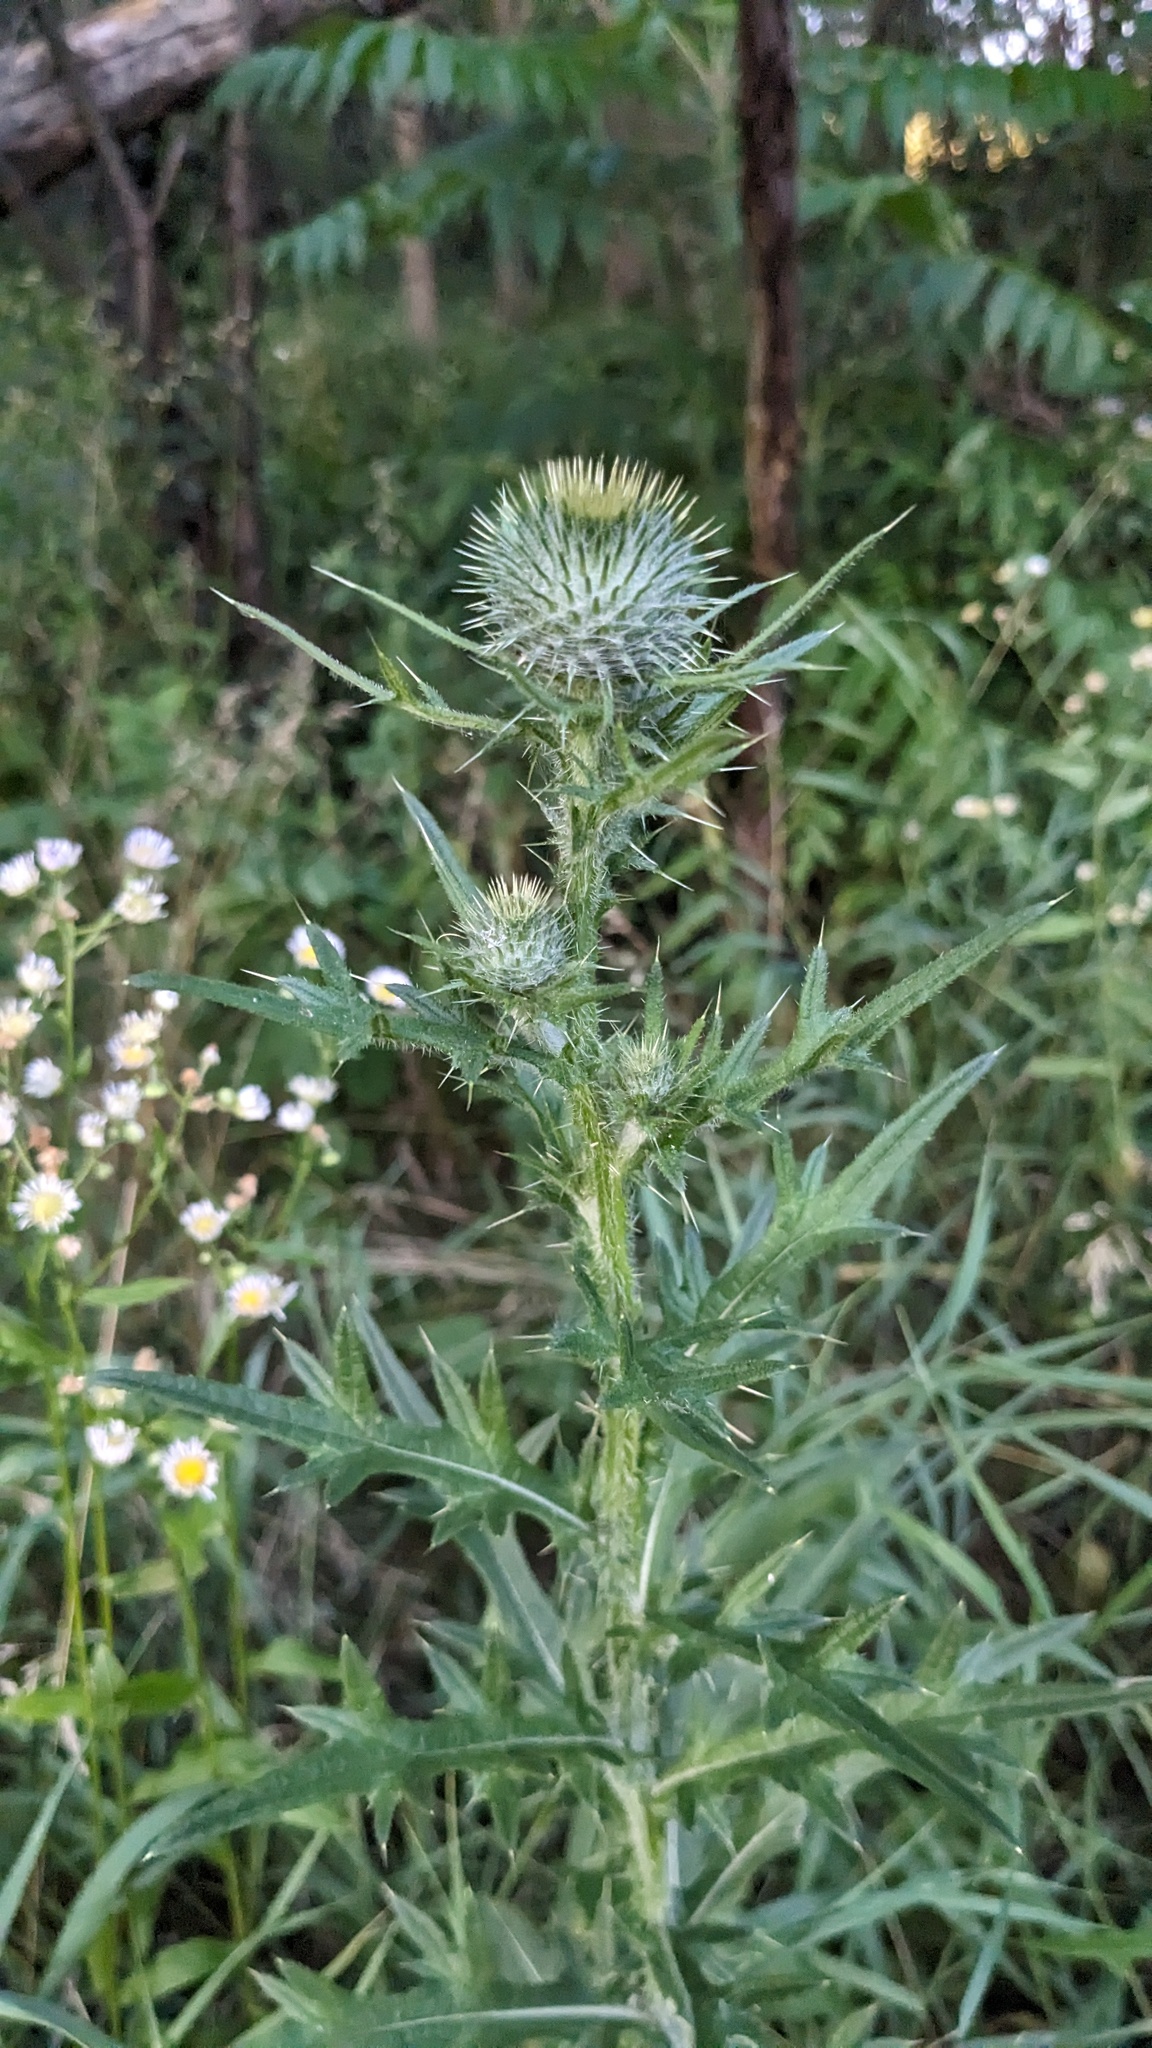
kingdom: Plantae
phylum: Tracheophyta
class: Magnoliopsida
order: Asterales
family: Asteraceae
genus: Cirsium
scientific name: Cirsium vulgare
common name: Bull thistle
